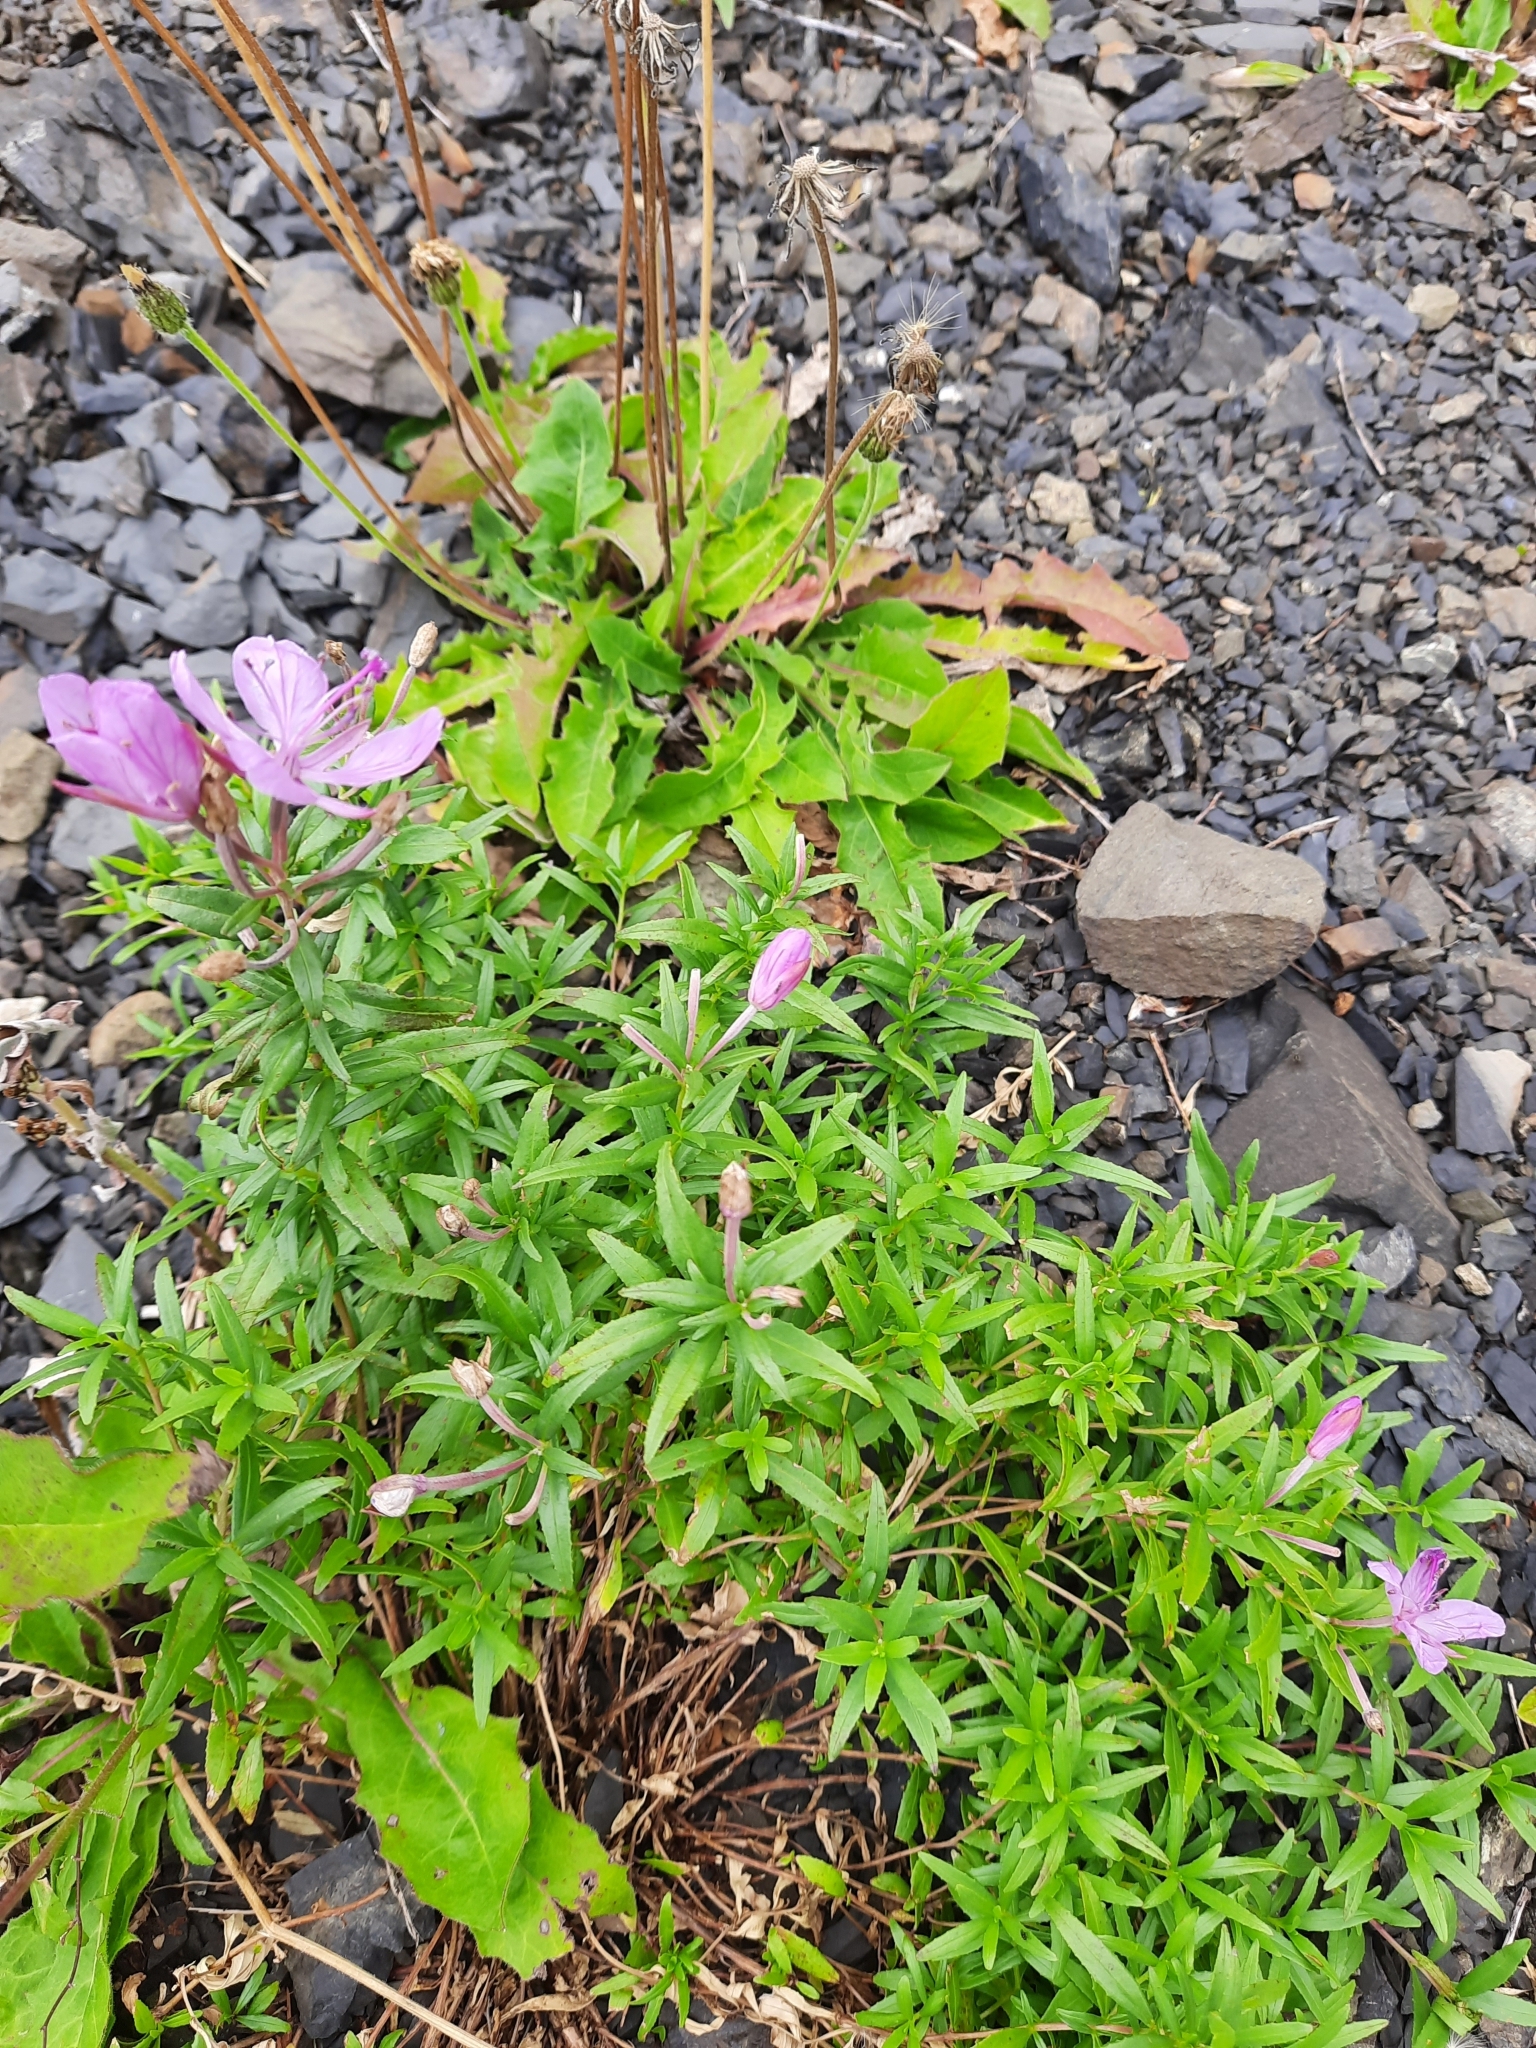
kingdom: Plantae
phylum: Tracheophyta
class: Magnoliopsida
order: Myrtales
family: Onagraceae
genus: Chamaenerion
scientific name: Chamaenerion colchicum
